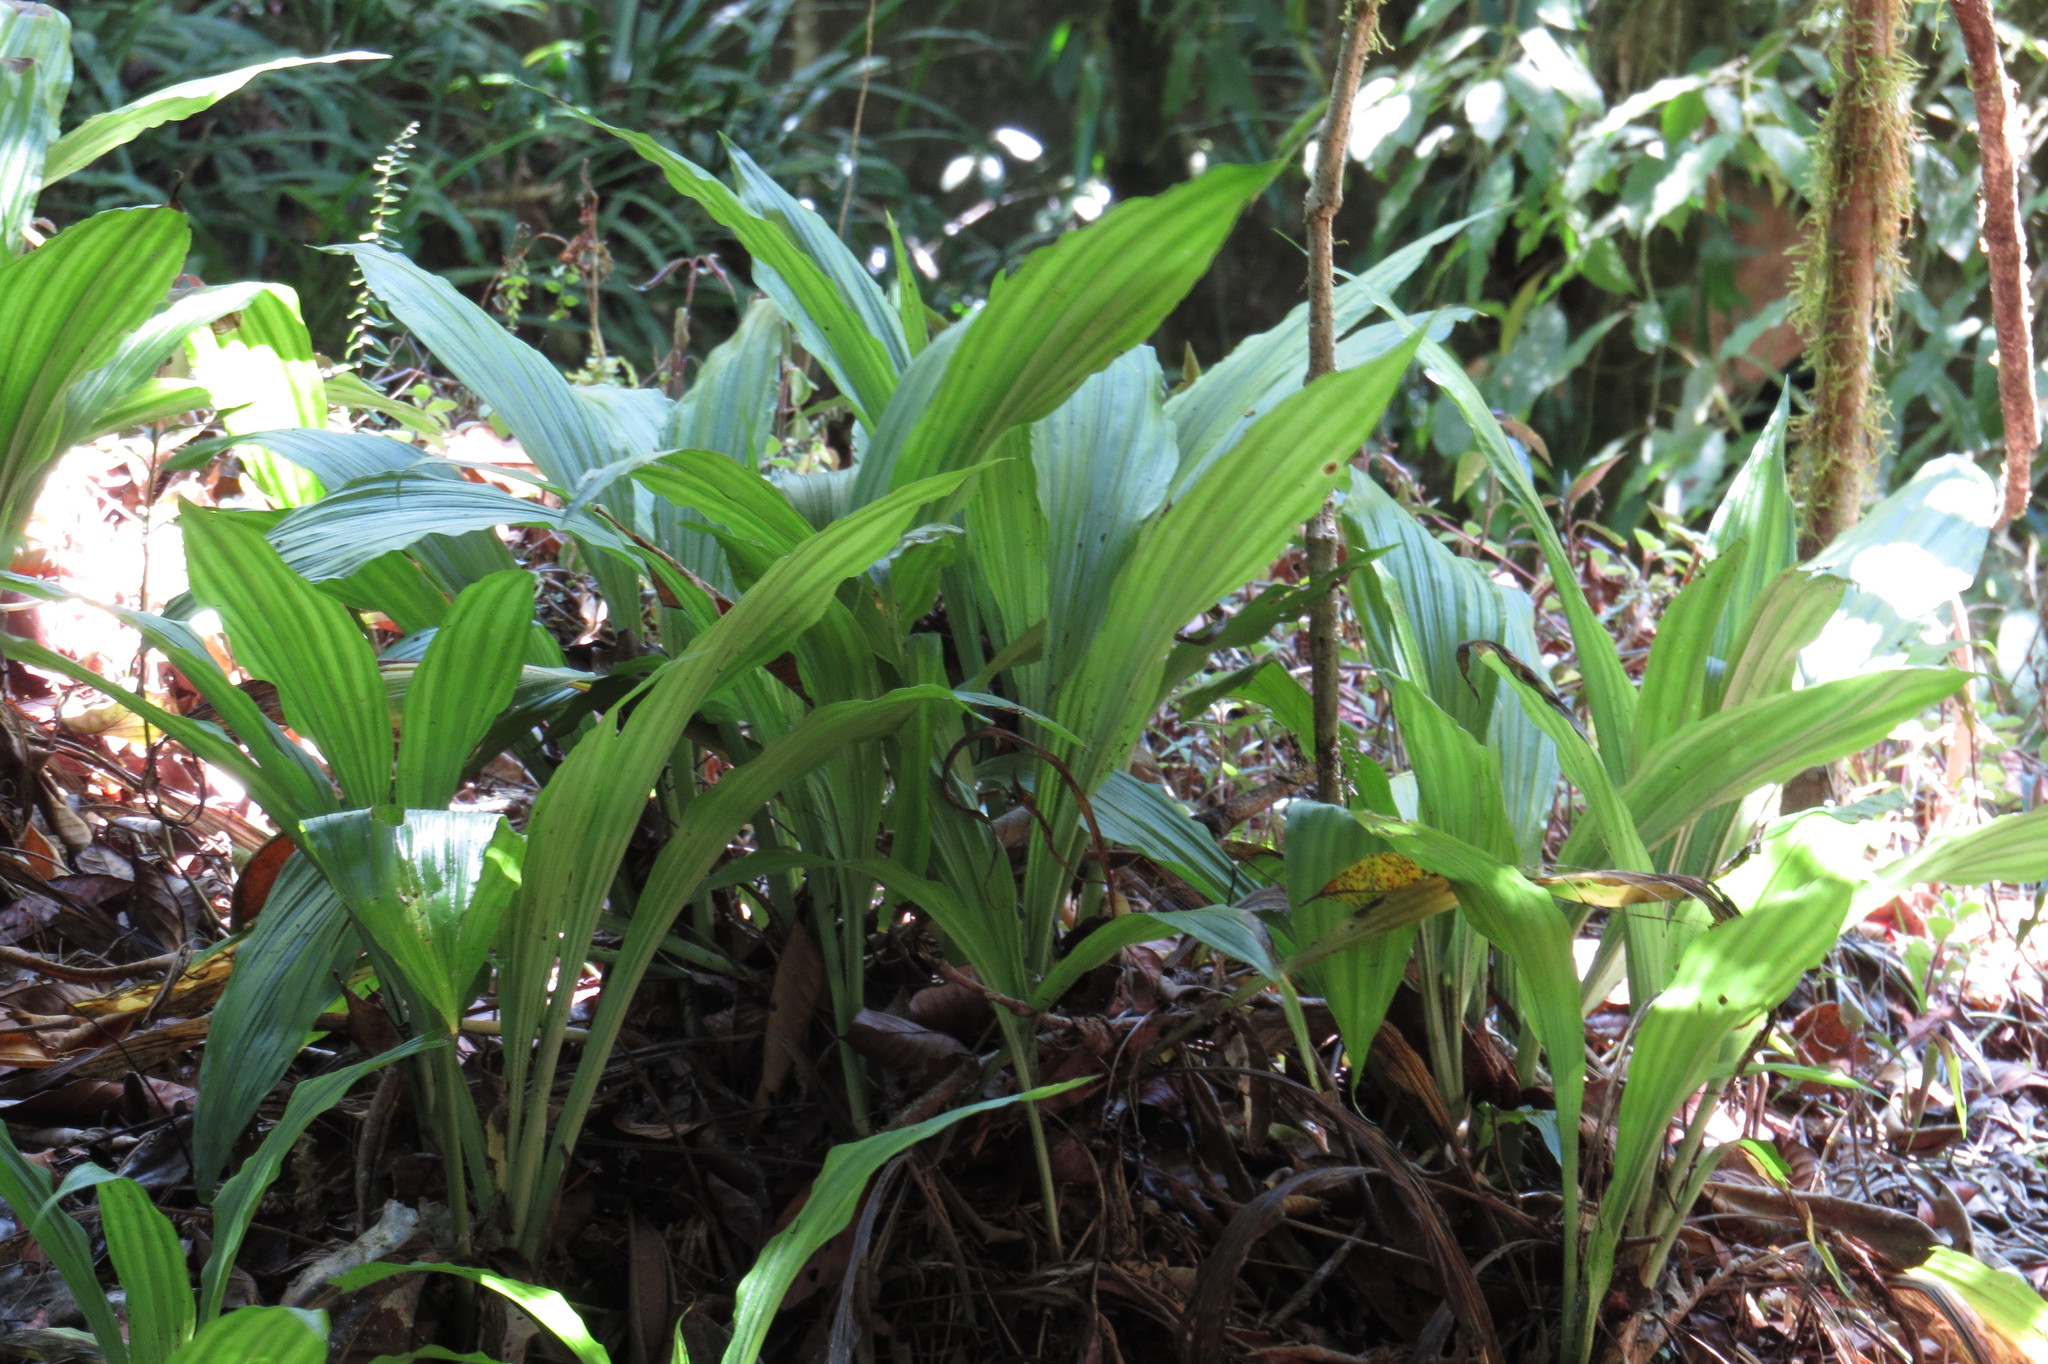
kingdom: Plantae
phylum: Tracheophyta
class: Liliopsida
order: Asparagales
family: Orchidaceae
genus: Eulophia
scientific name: Eulophia cernua
